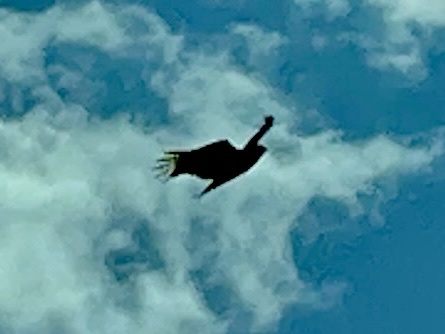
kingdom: Animalia
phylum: Chordata
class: Aves
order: Accipitriformes
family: Cathartidae
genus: Cathartes
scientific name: Cathartes aura
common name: Turkey vulture
